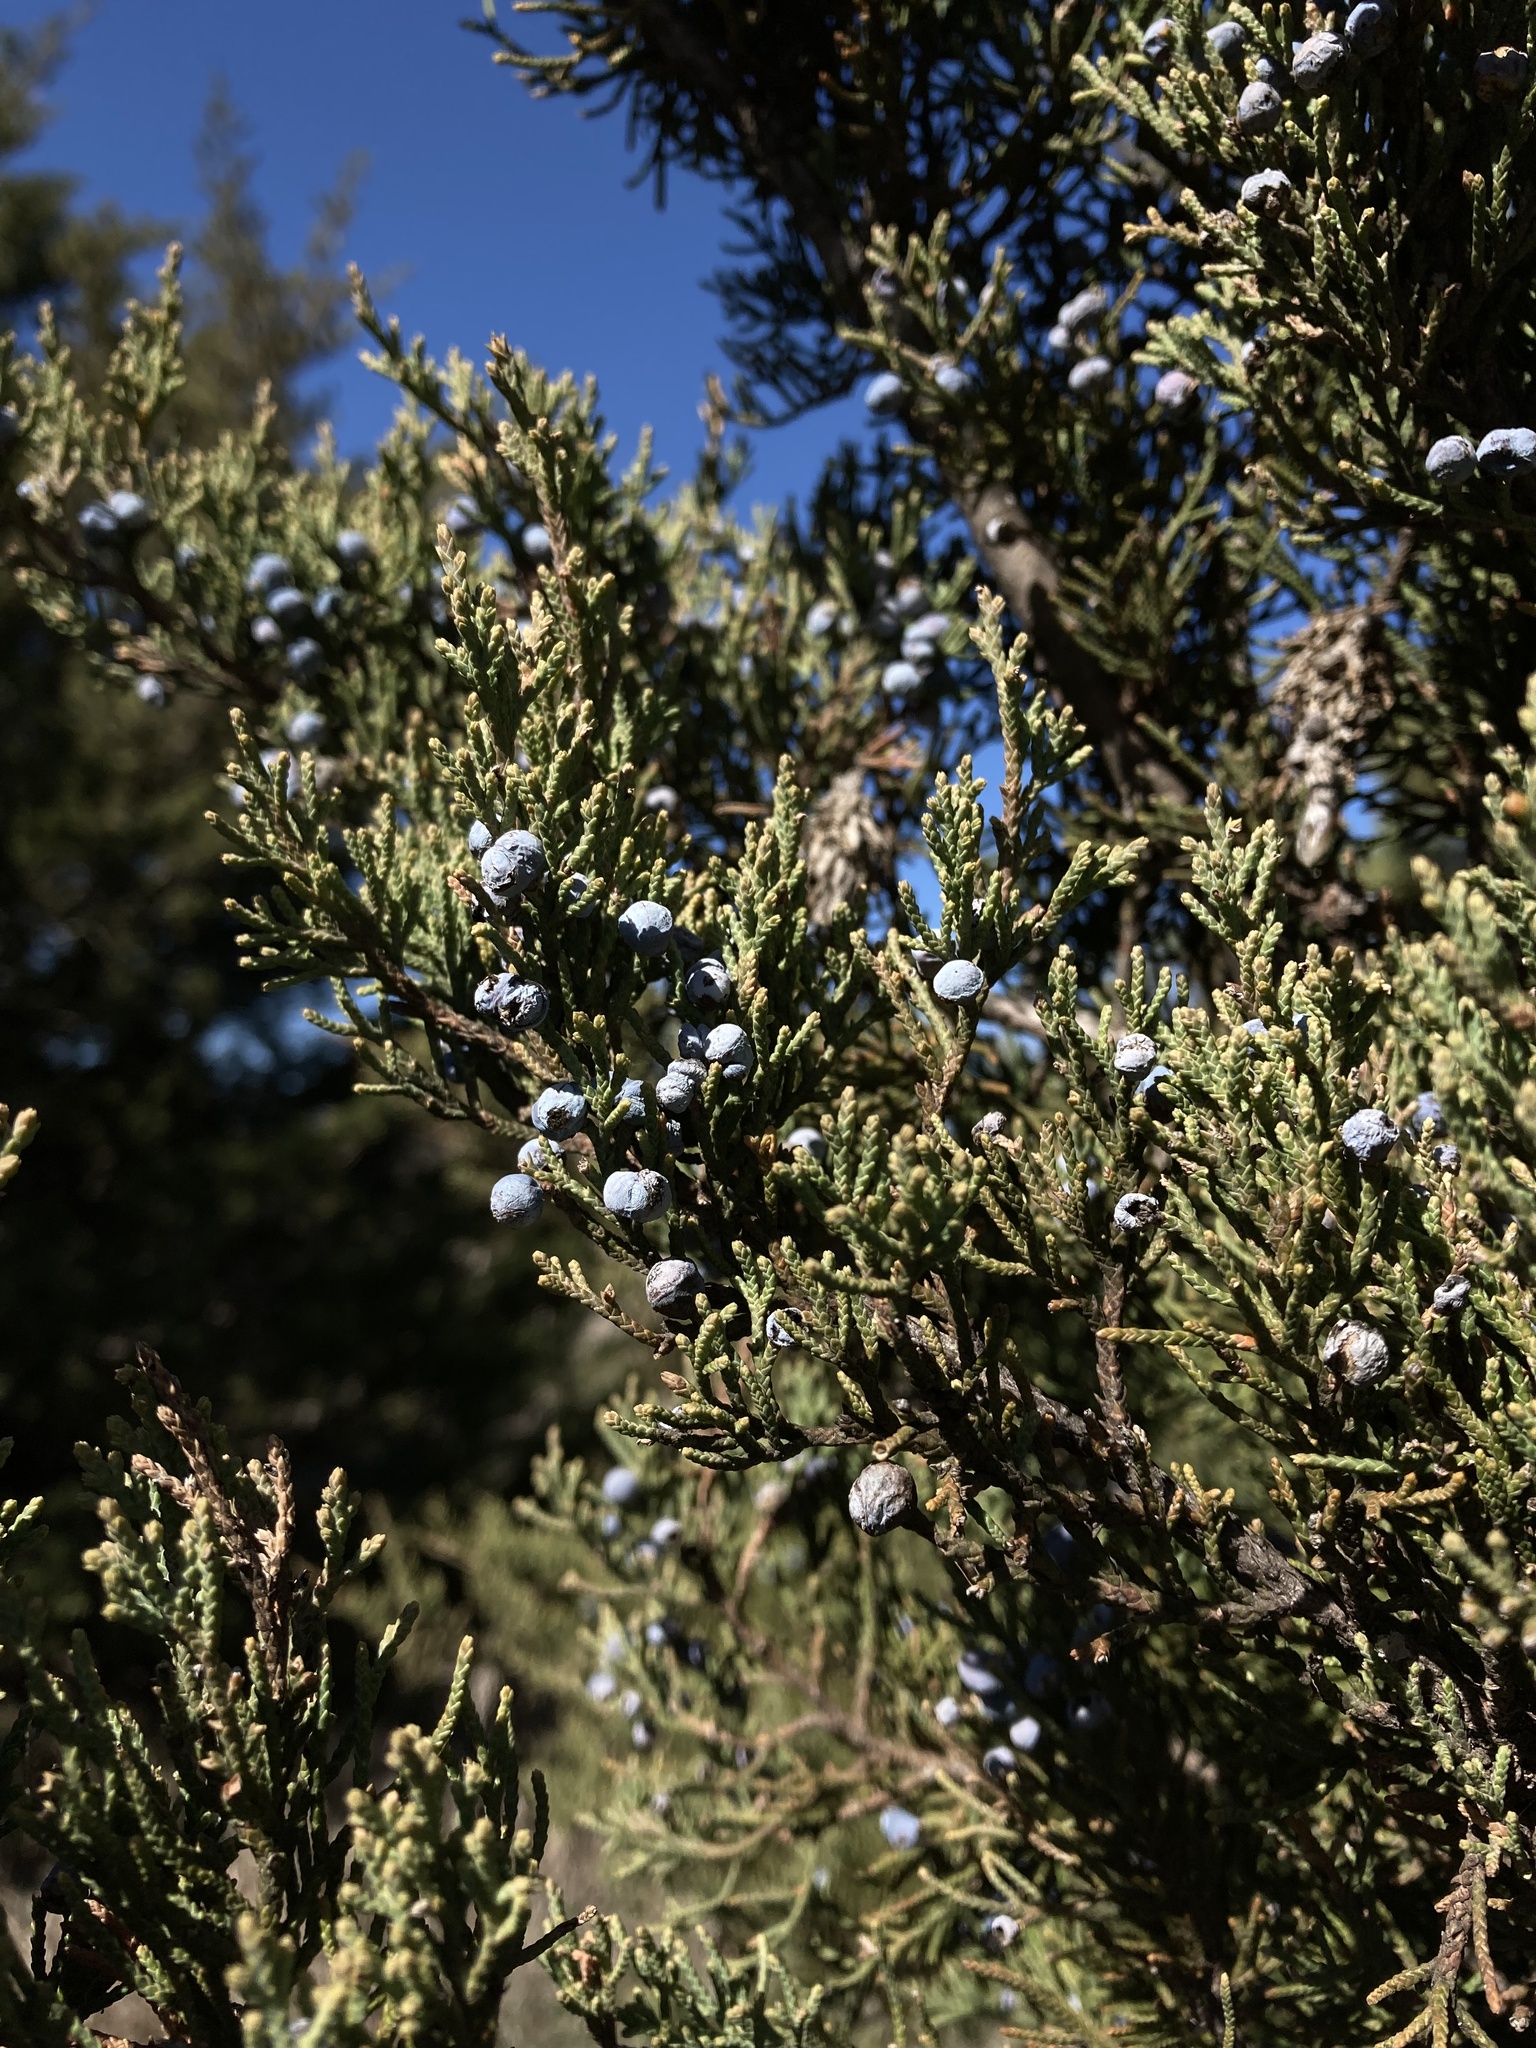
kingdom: Plantae
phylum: Tracheophyta
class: Pinopsida
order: Pinales
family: Cupressaceae
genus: Juniperus
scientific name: Juniperus virginiana
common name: Red juniper
